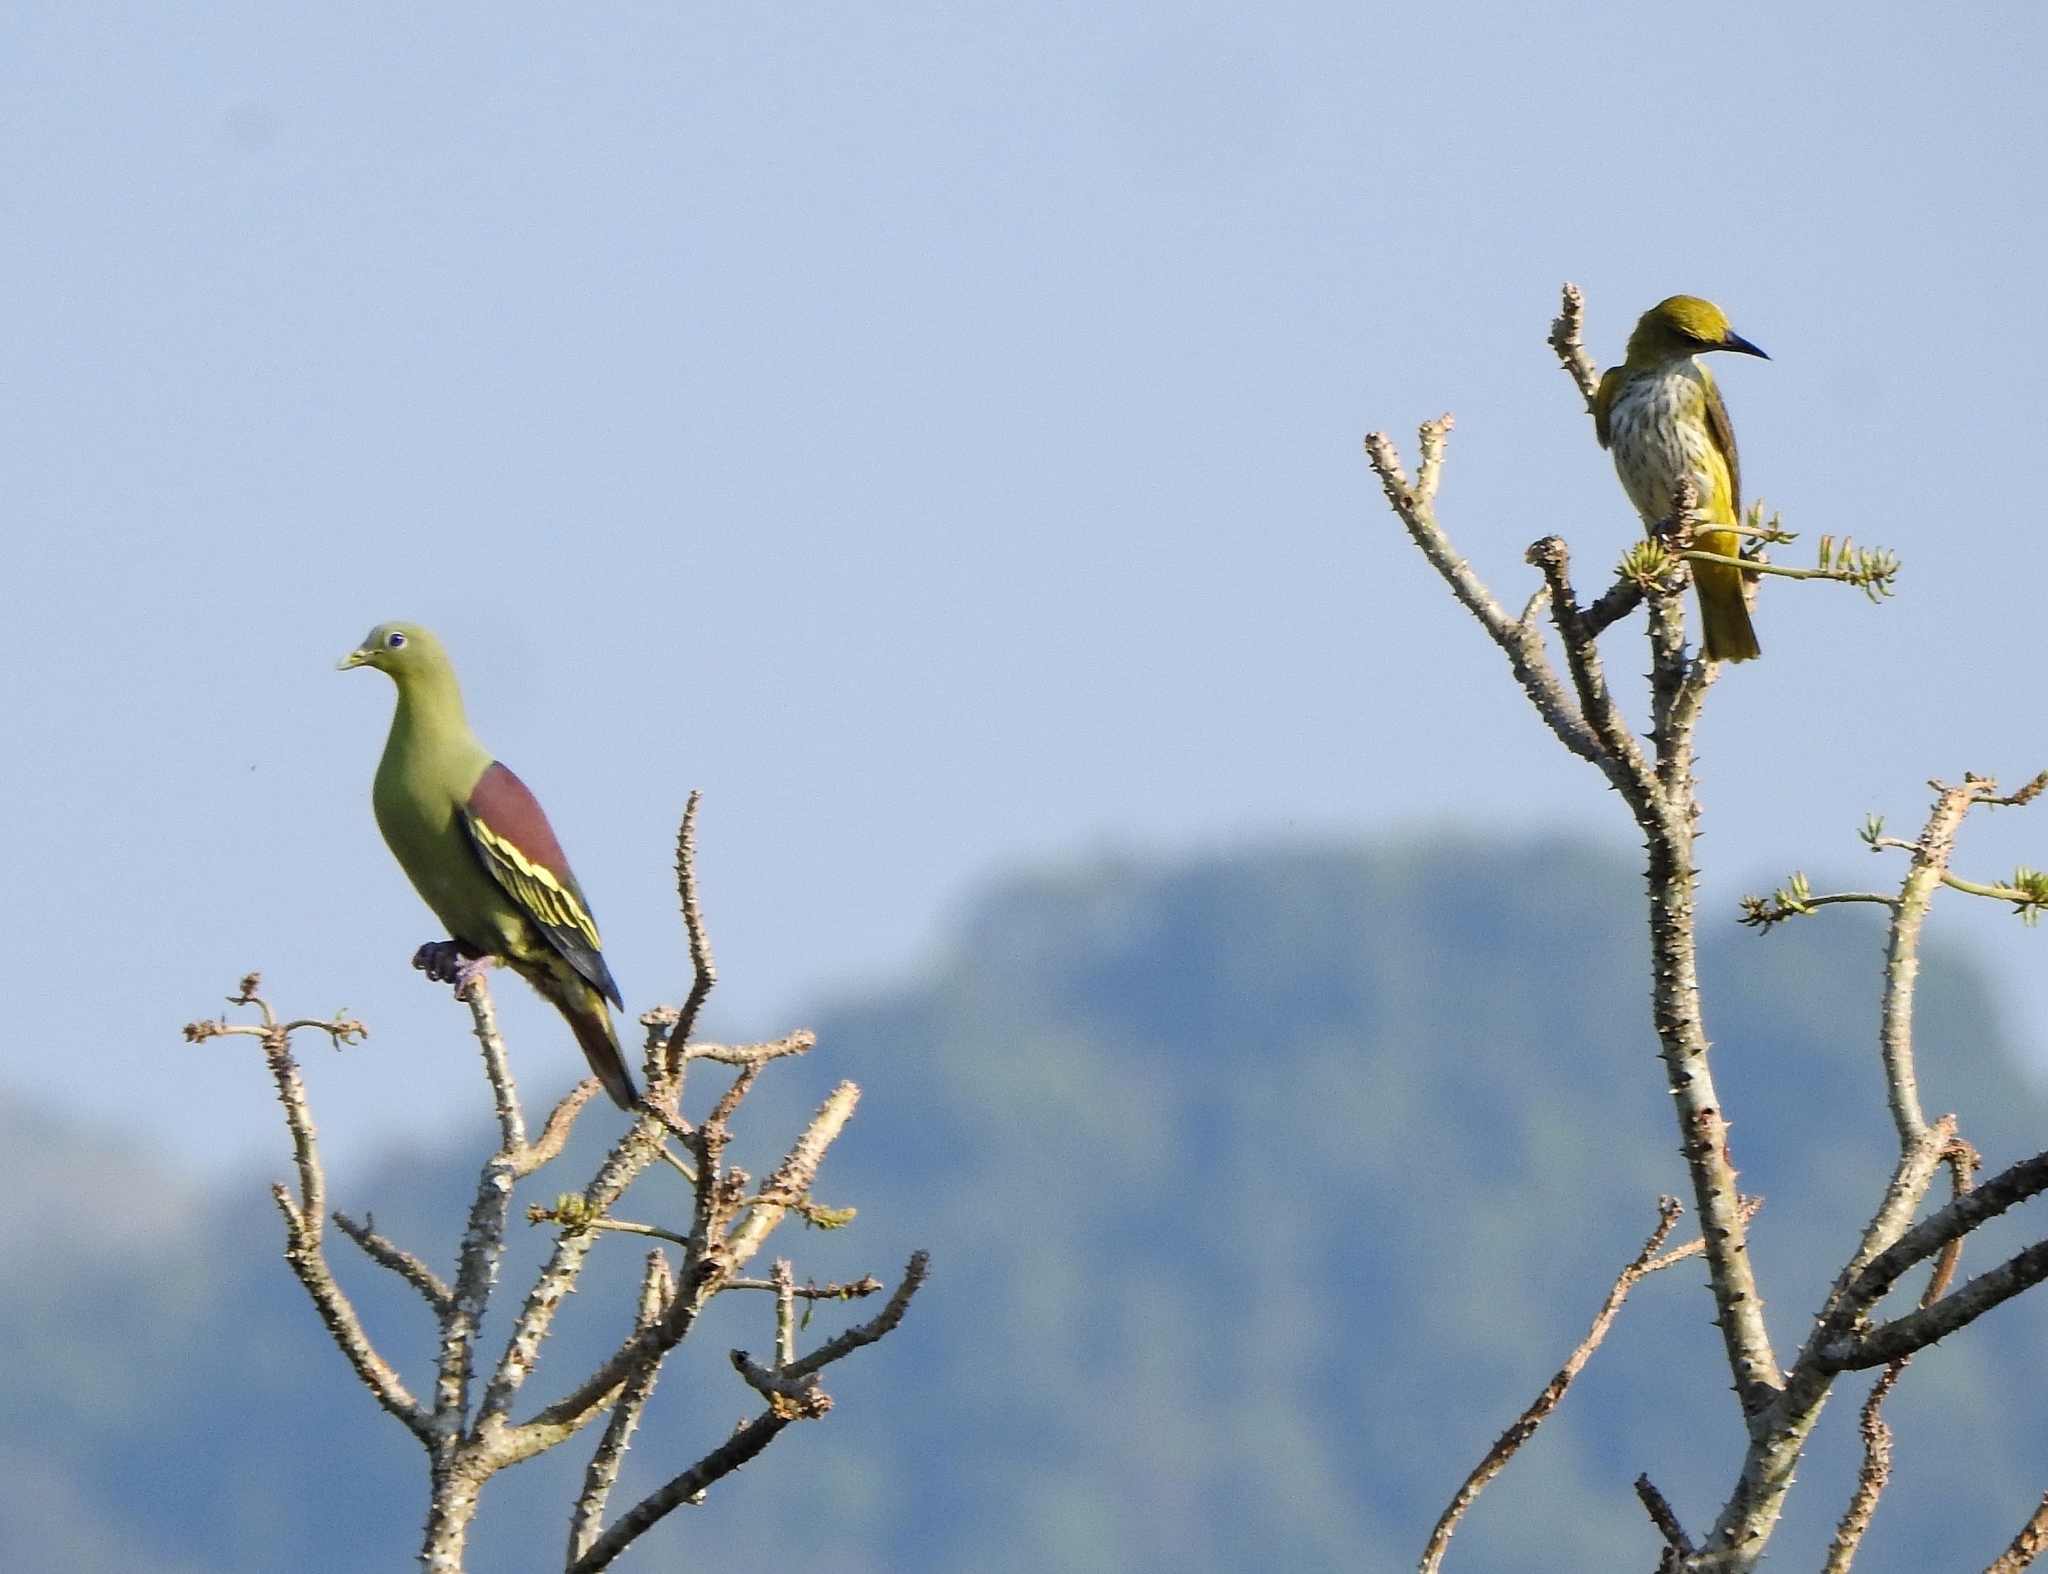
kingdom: Animalia
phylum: Chordata
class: Aves
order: Passeriformes
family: Oriolidae
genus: Oriolus
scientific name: Oriolus kundoo
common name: Indian golden oriole
